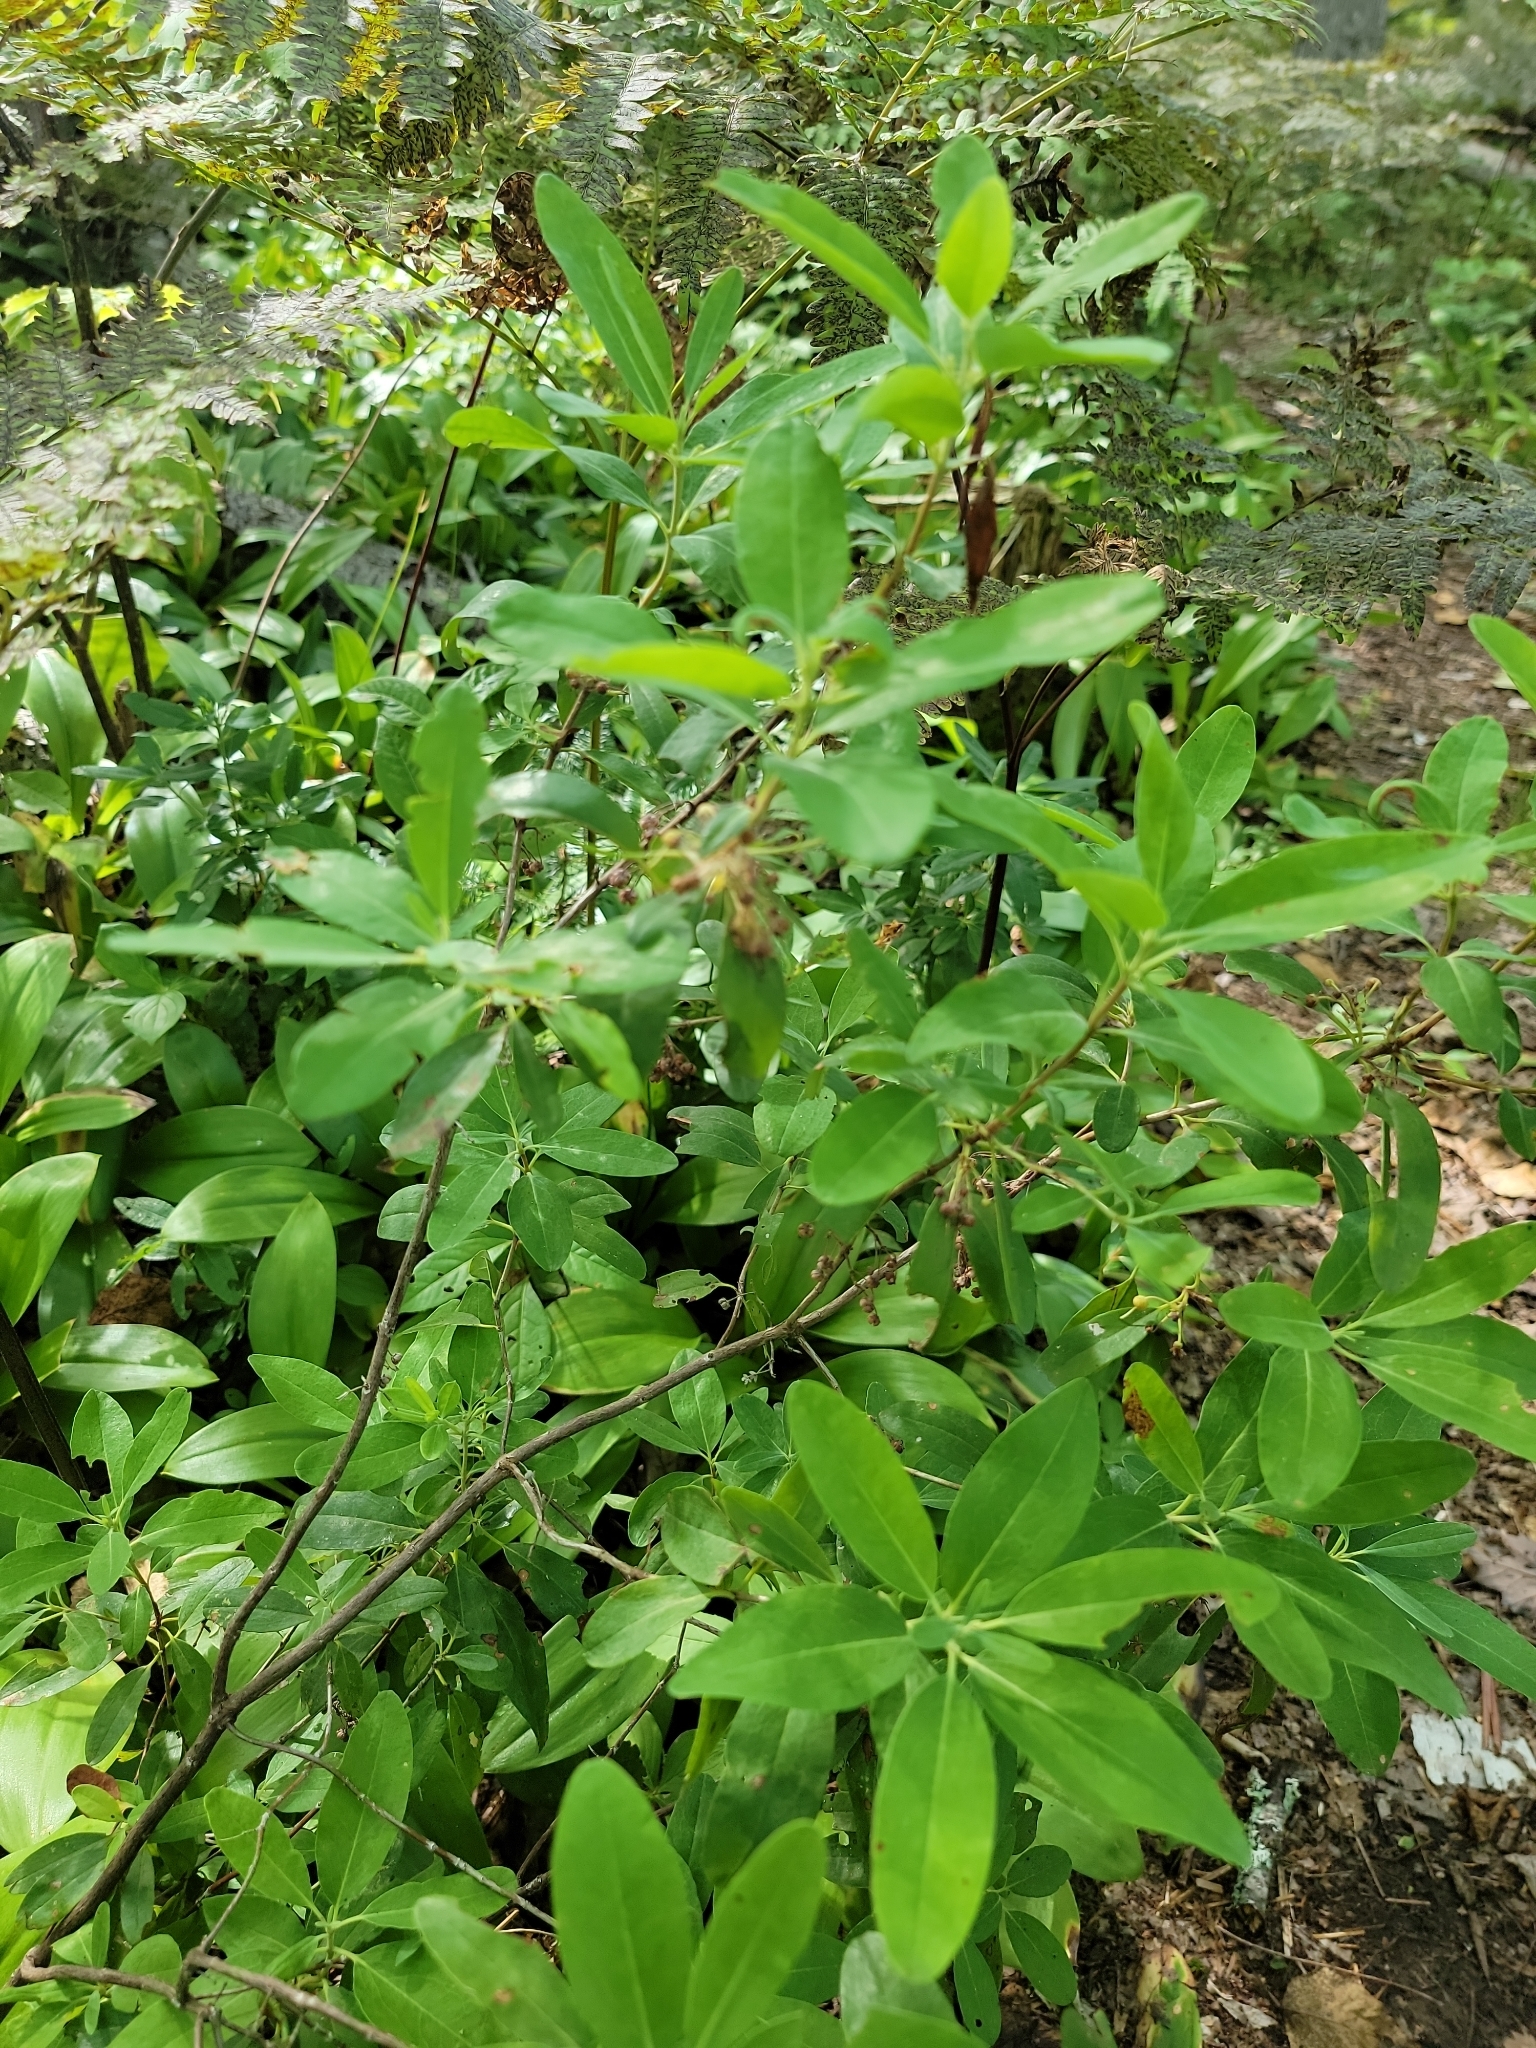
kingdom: Plantae
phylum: Tracheophyta
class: Magnoliopsida
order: Ericales
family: Ericaceae
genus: Kalmia
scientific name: Kalmia angustifolia
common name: Sheep-laurel
